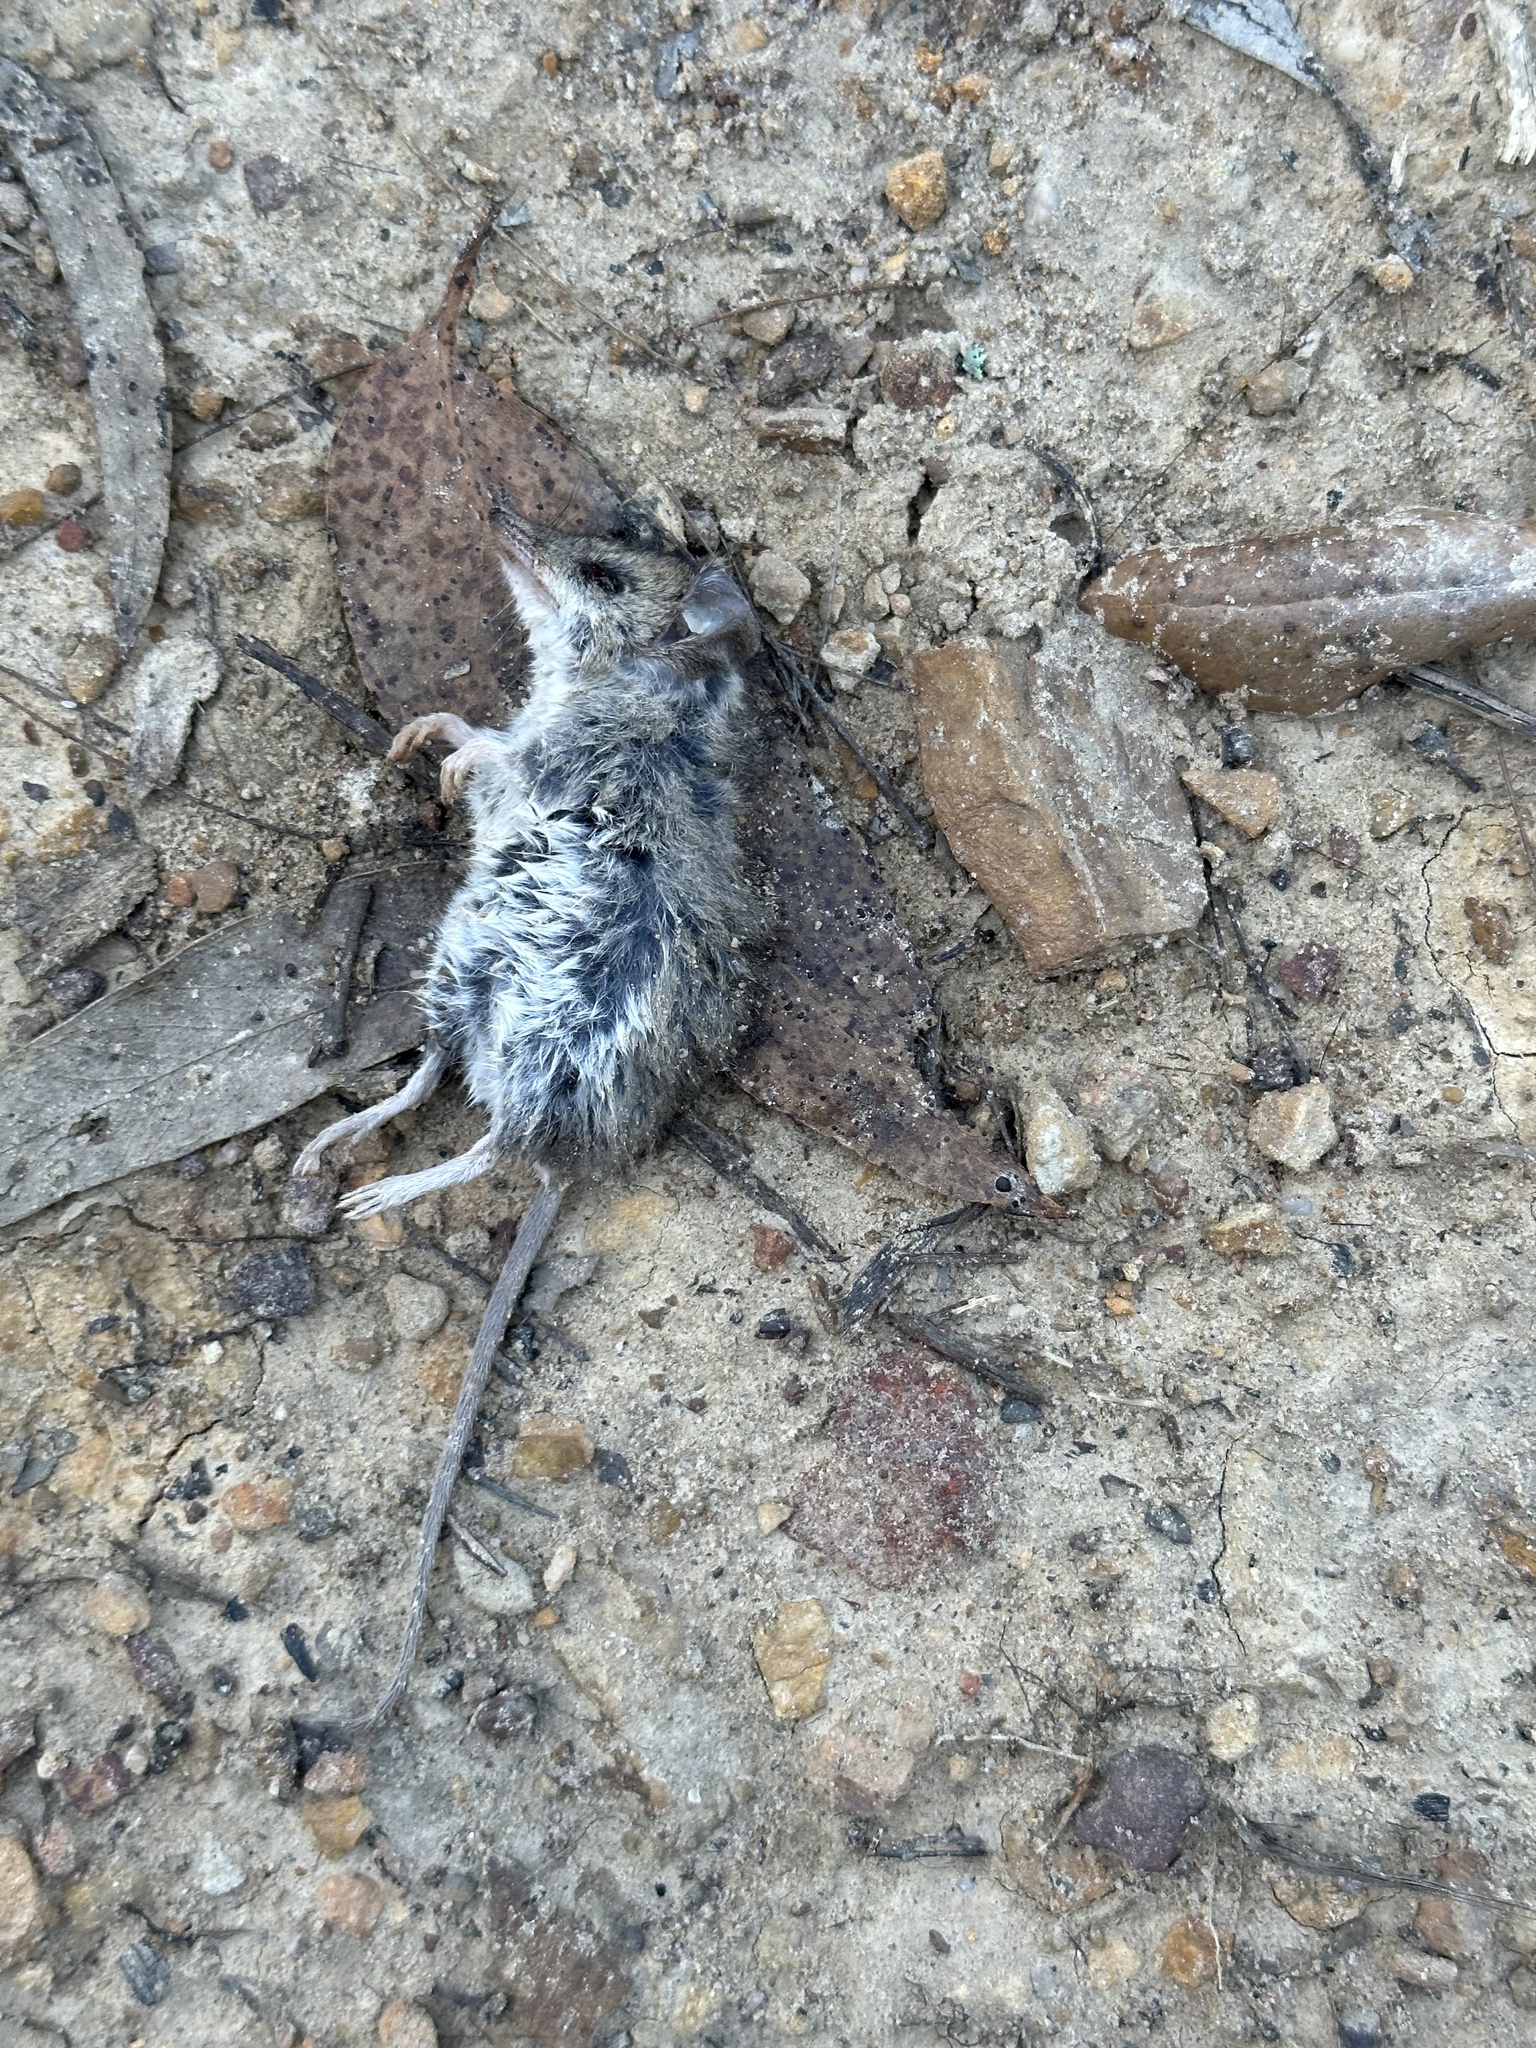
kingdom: Animalia
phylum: Chordata
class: Mammalia
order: Dasyuromorphia
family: Dasyuridae
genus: Sminthopsis
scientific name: Sminthopsis murina
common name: Slender-tailed dunnart
